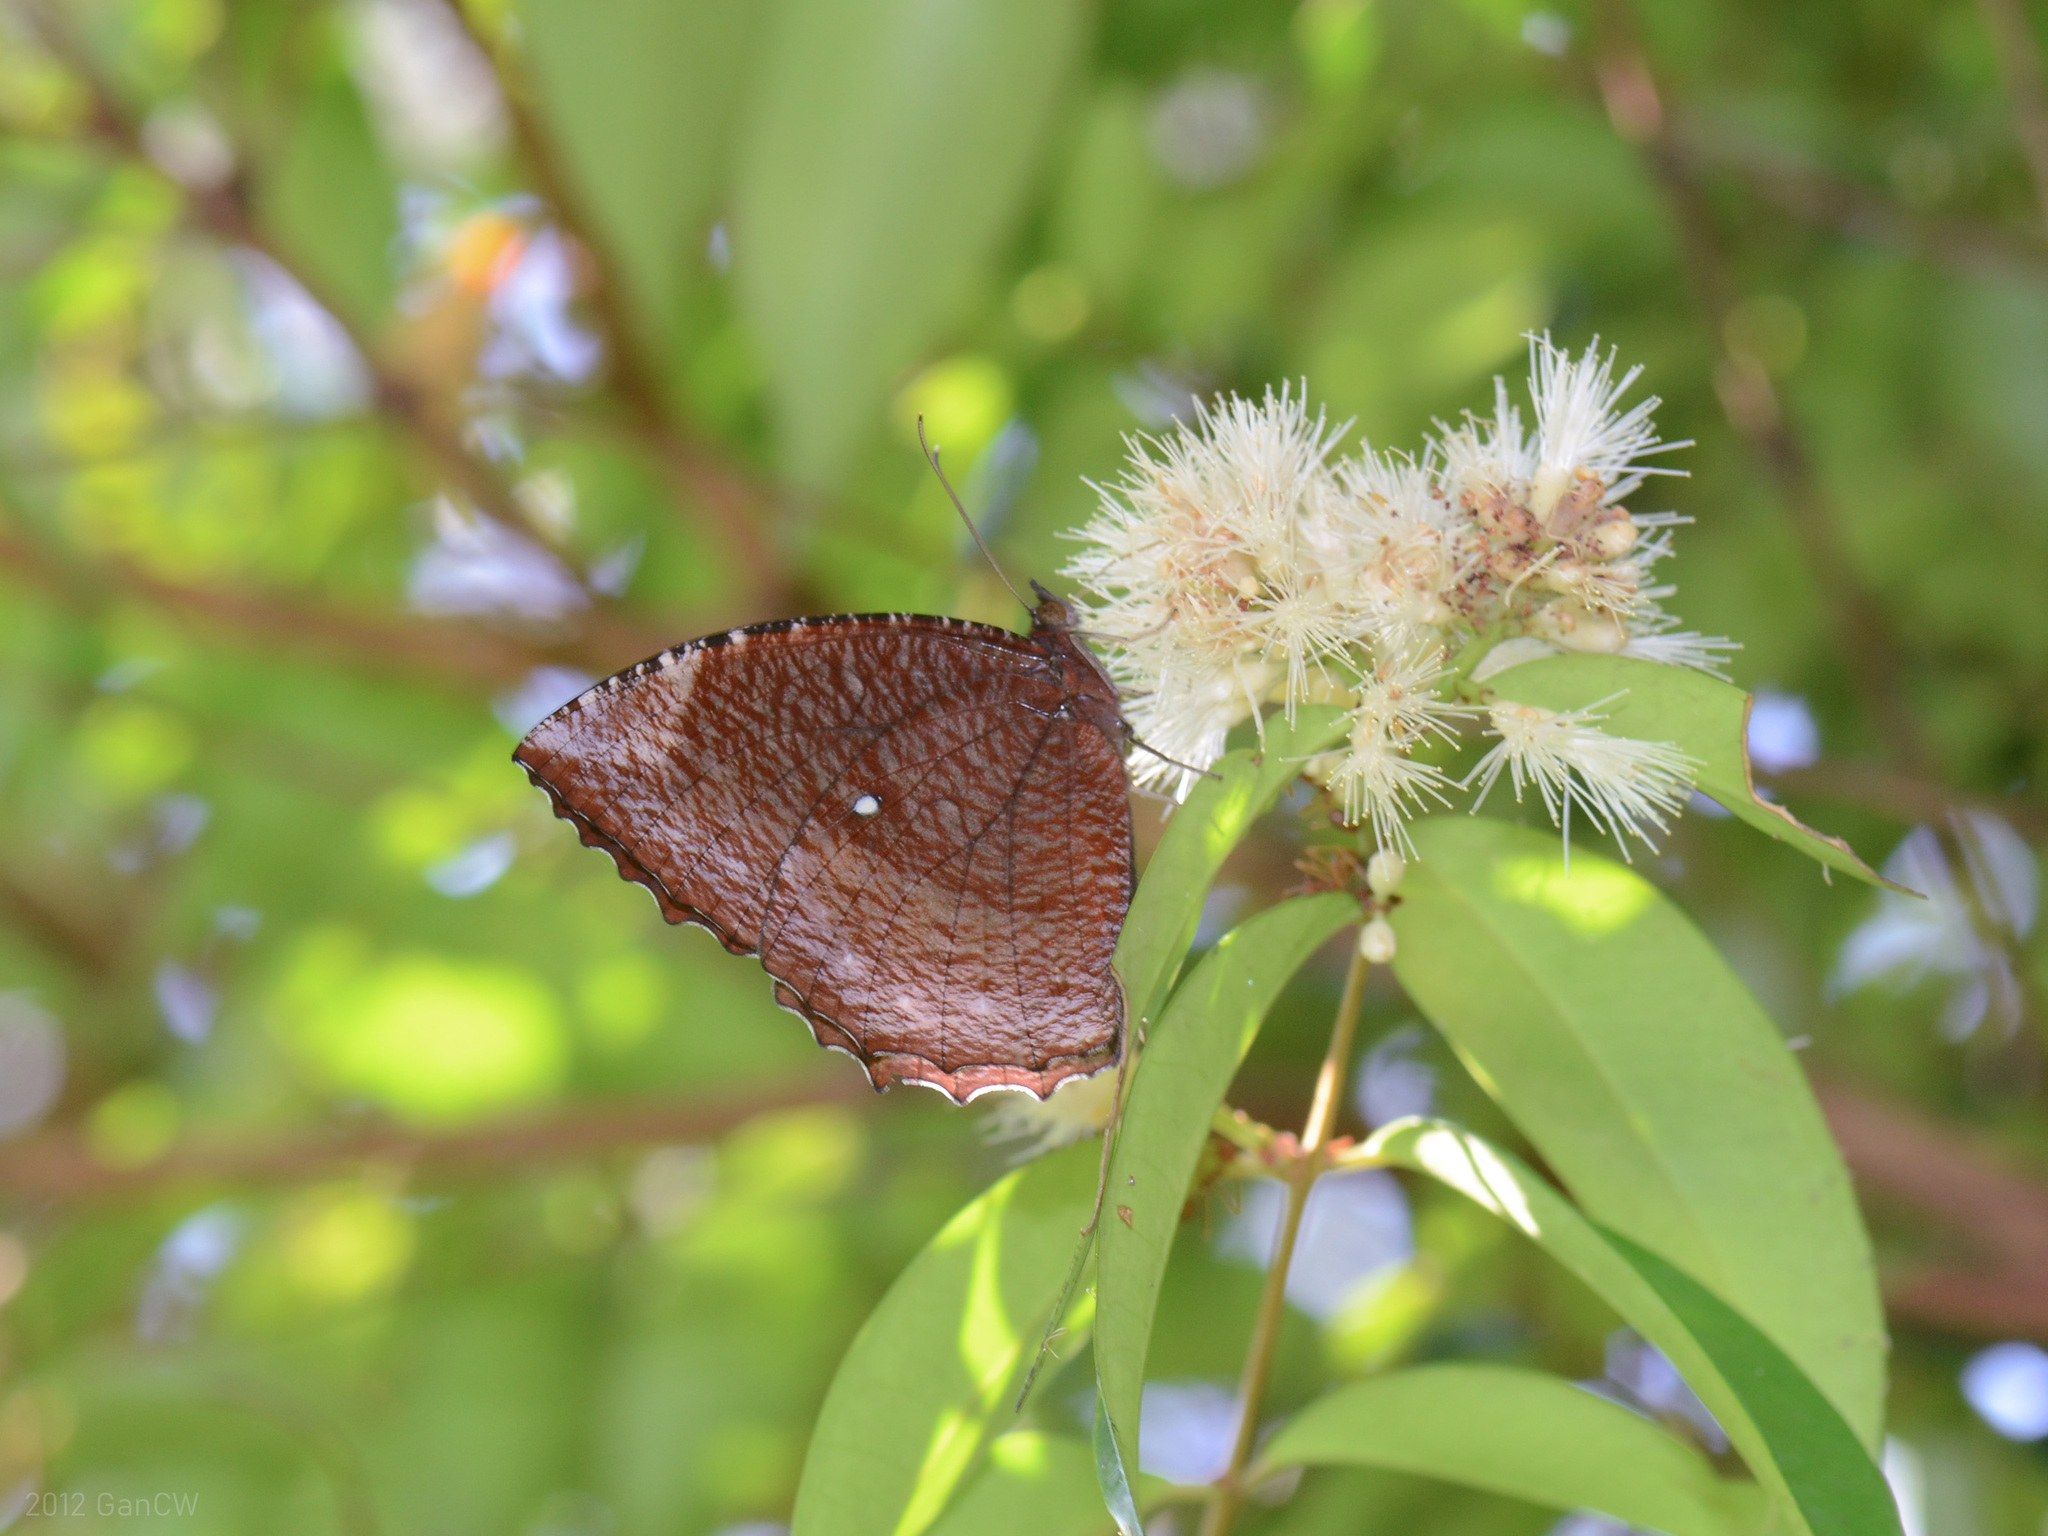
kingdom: Animalia
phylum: Arthropoda
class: Insecta
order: Lepidoptera
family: Nymphalidae
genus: Elymnias
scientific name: Elymnias hypermnestra
